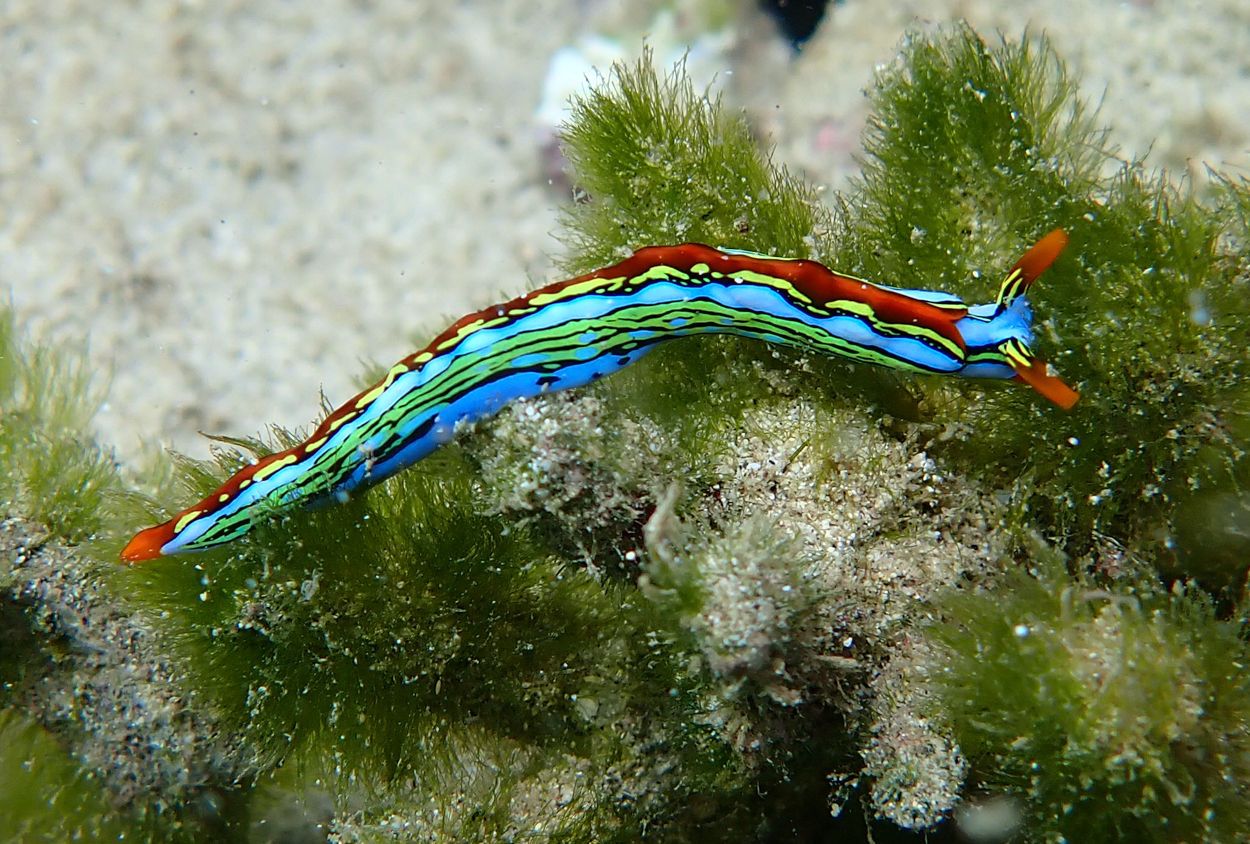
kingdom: Animalia
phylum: Mollusca
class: Gastropoda
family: Plakobranchidae
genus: Thuridilla
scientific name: Thuridilla
